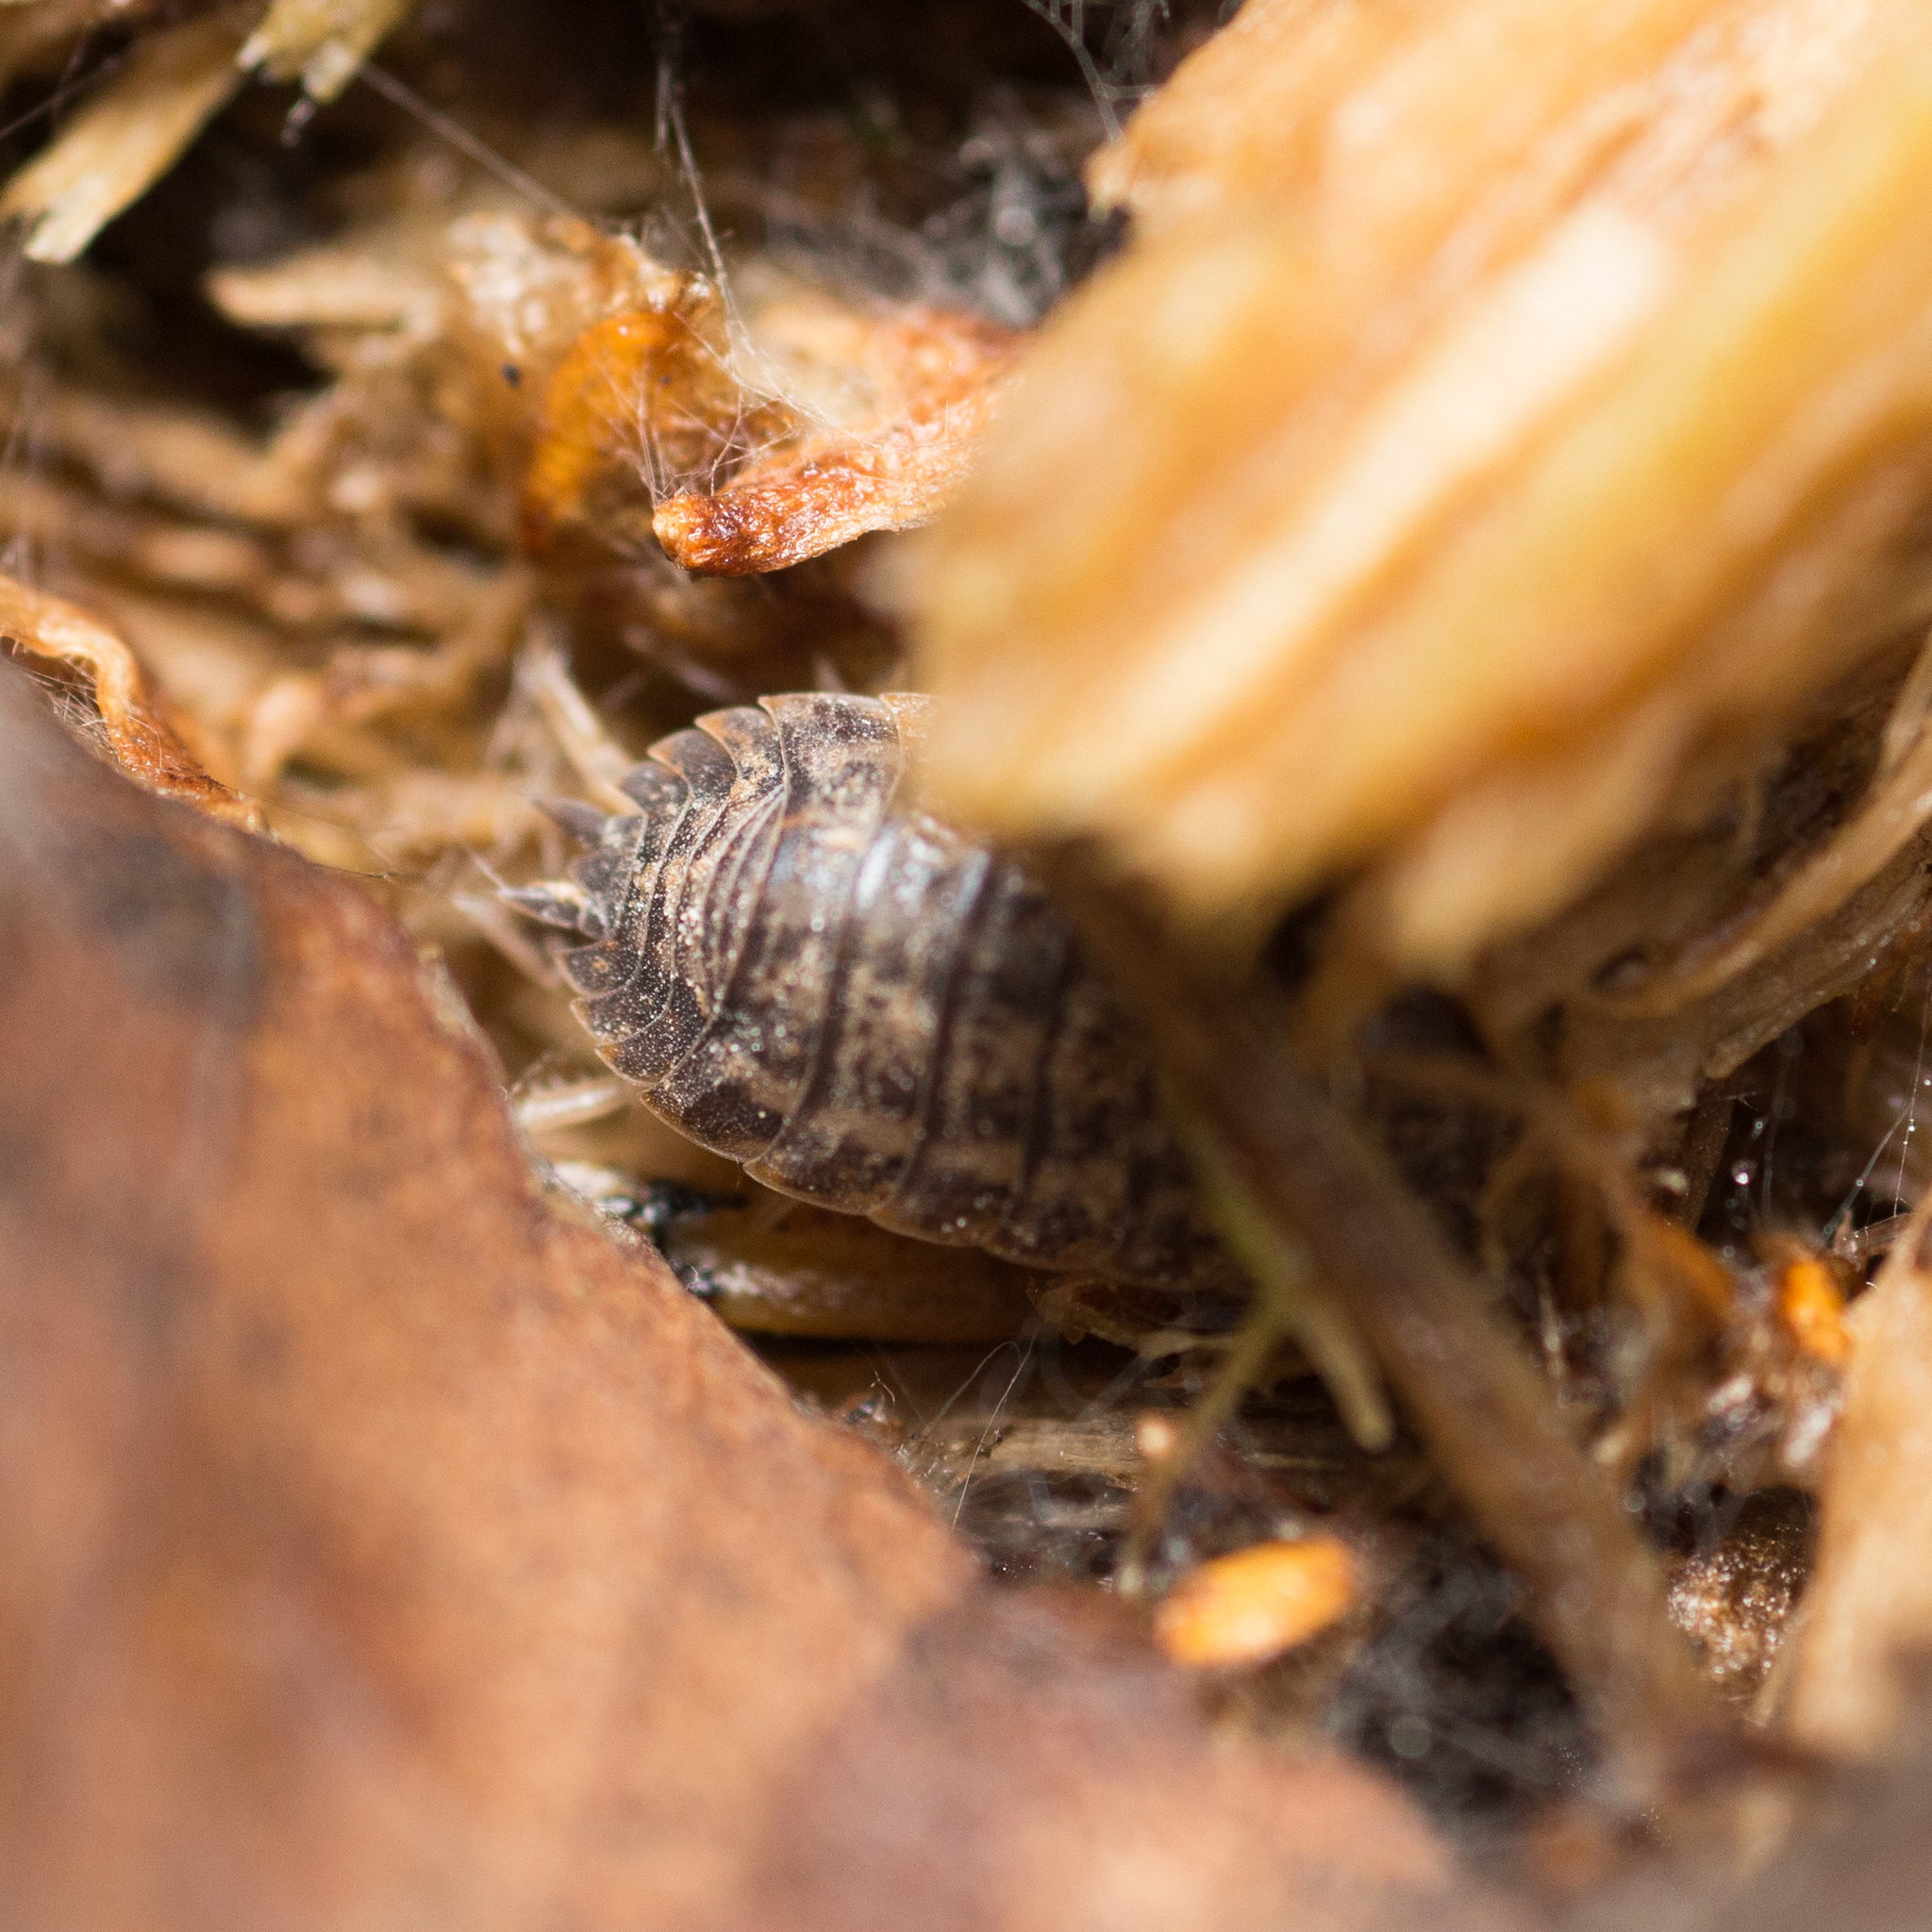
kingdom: Animalia
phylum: Arthropoda
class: Malacostraca
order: Isopoda
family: Trachelipodidae
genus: Trachelipus
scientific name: Trachelipus rathkii
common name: Isopod
